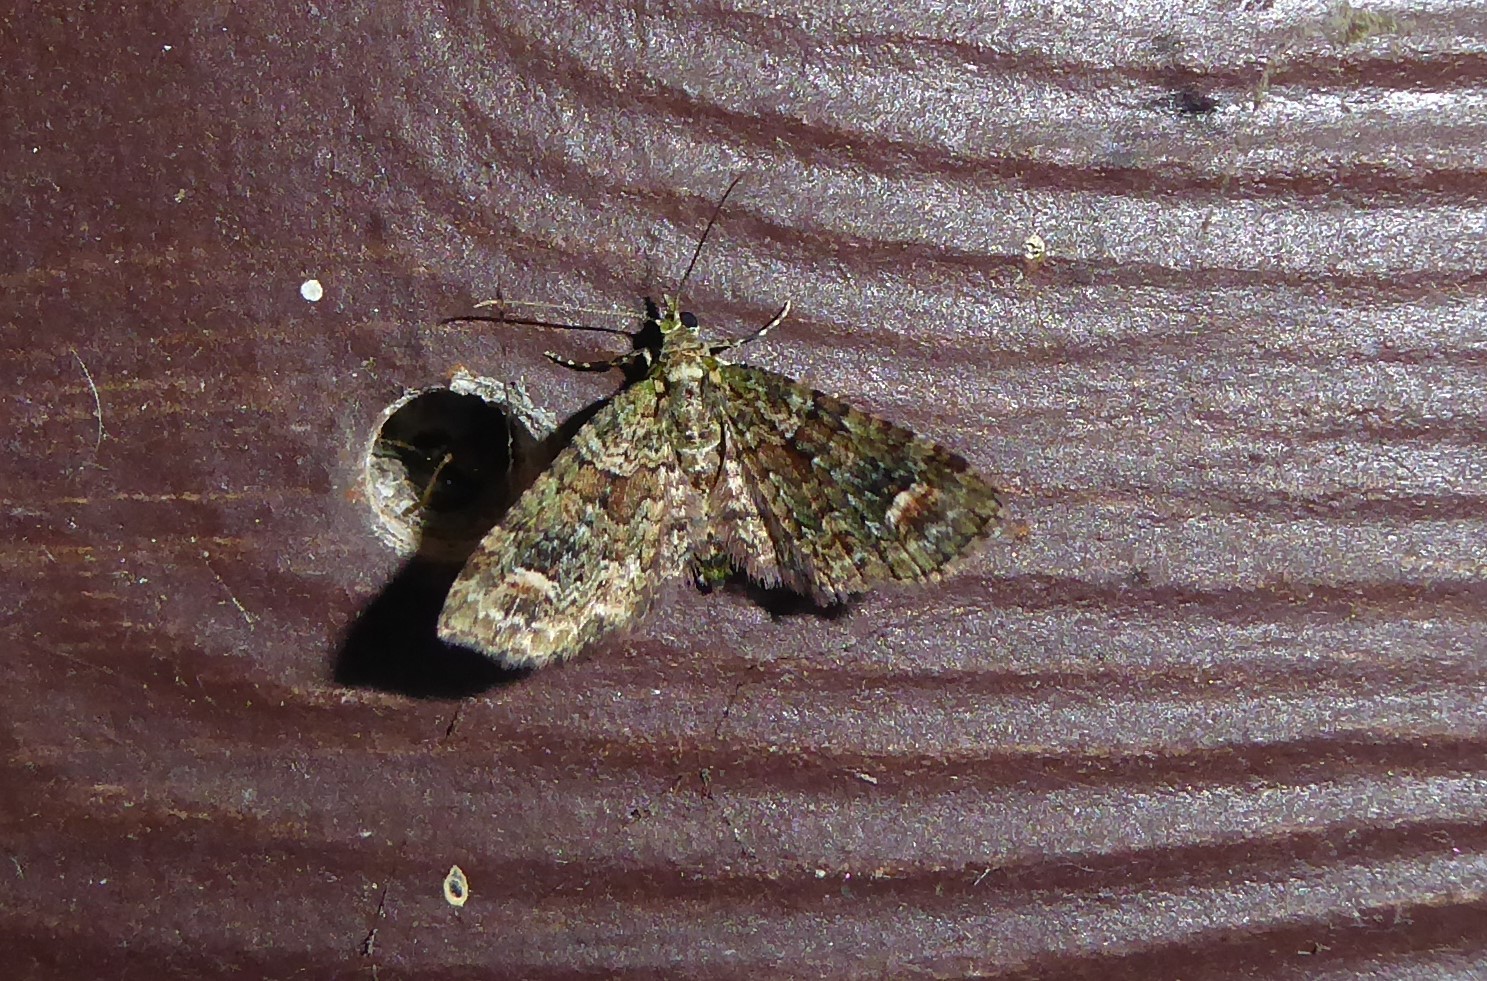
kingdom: Animalia
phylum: Arthropoda
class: Insecta
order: Lepidoptera
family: Geometridae
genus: Idaea
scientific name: Idaea mutanda
